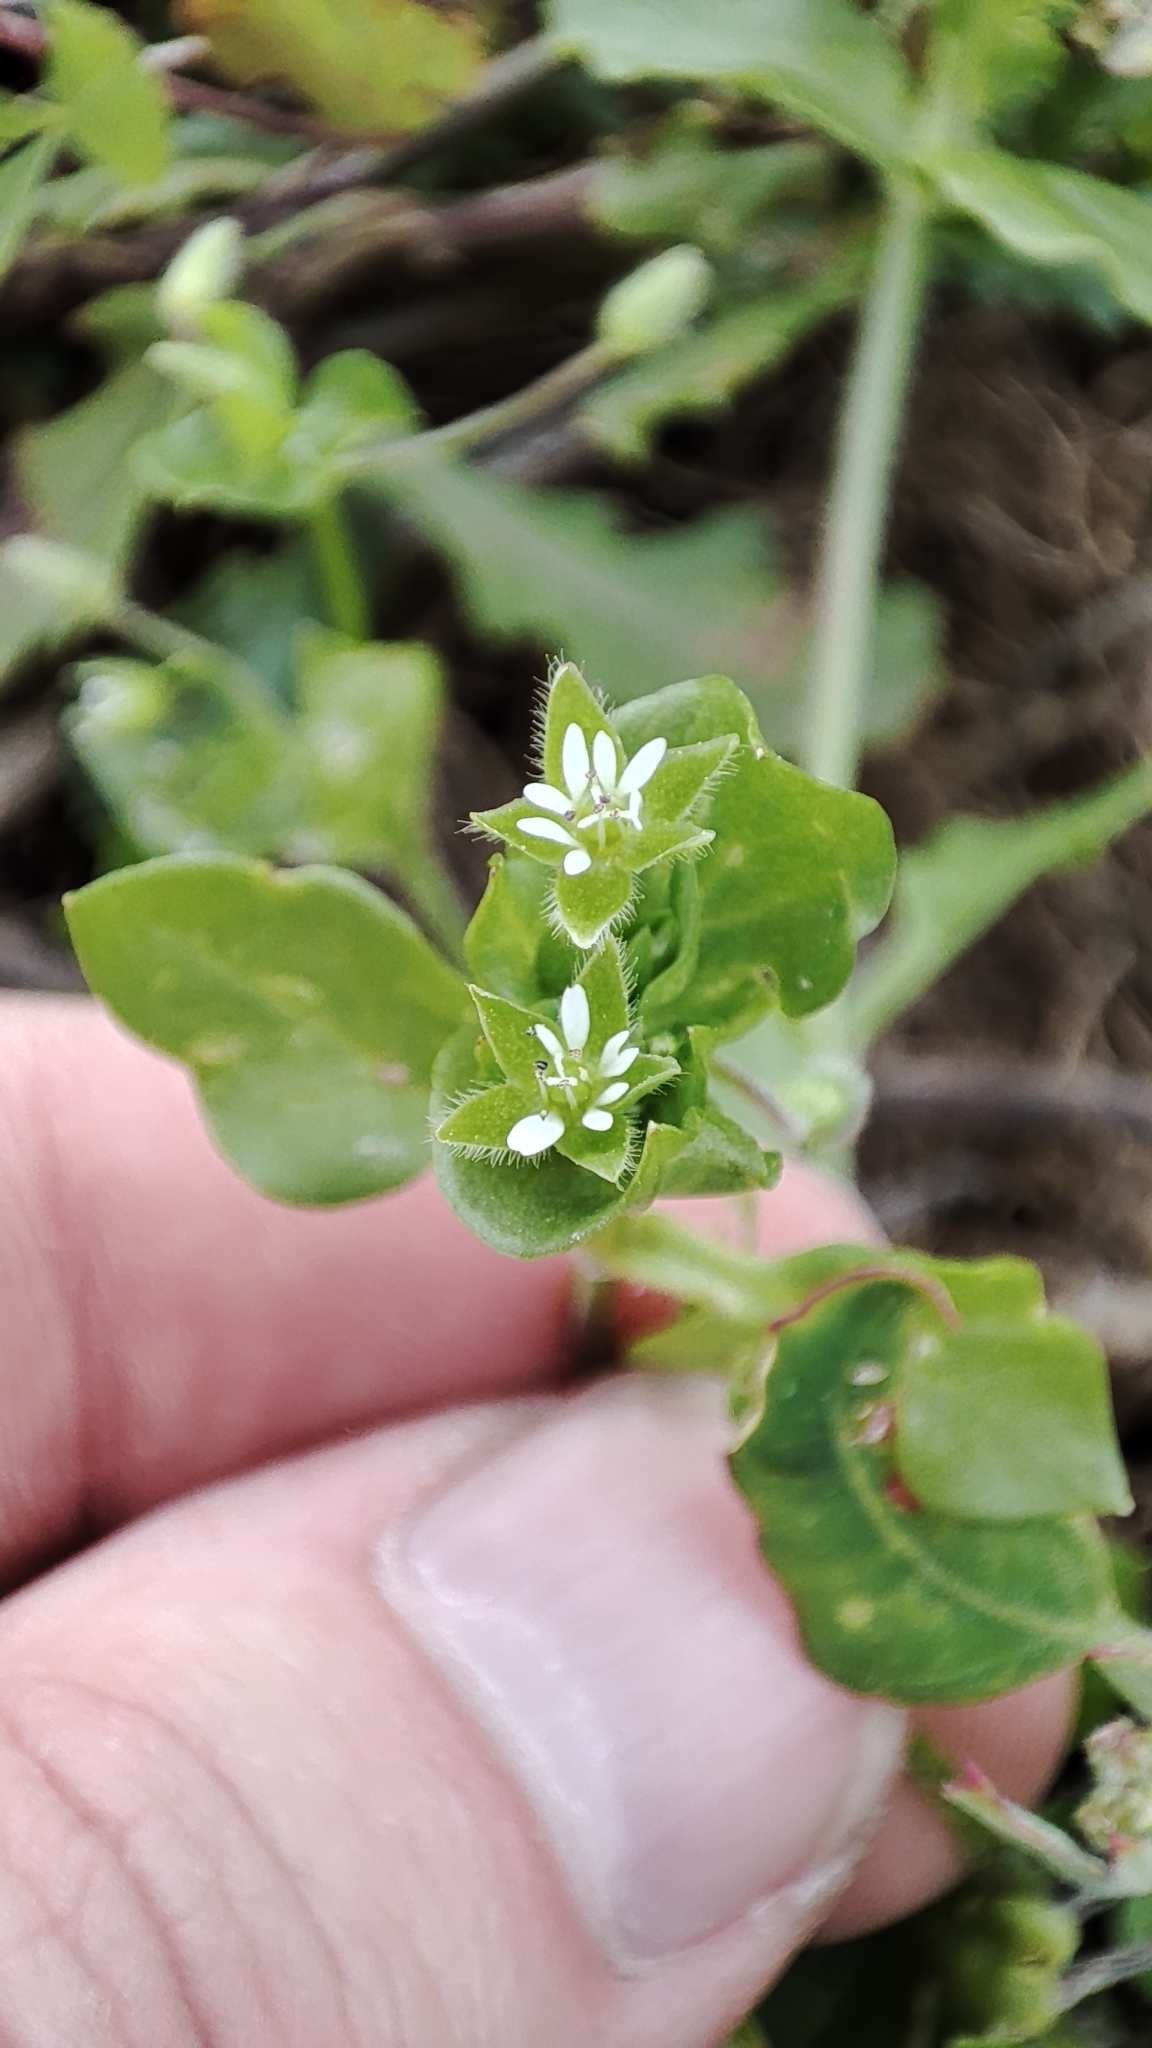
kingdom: Plantae
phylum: Tracheophyta
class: Magnoliopsida
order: Caryophyllales
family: Caryophyllaceae
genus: Stellaria
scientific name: Stellaria media
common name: Common chickweed
